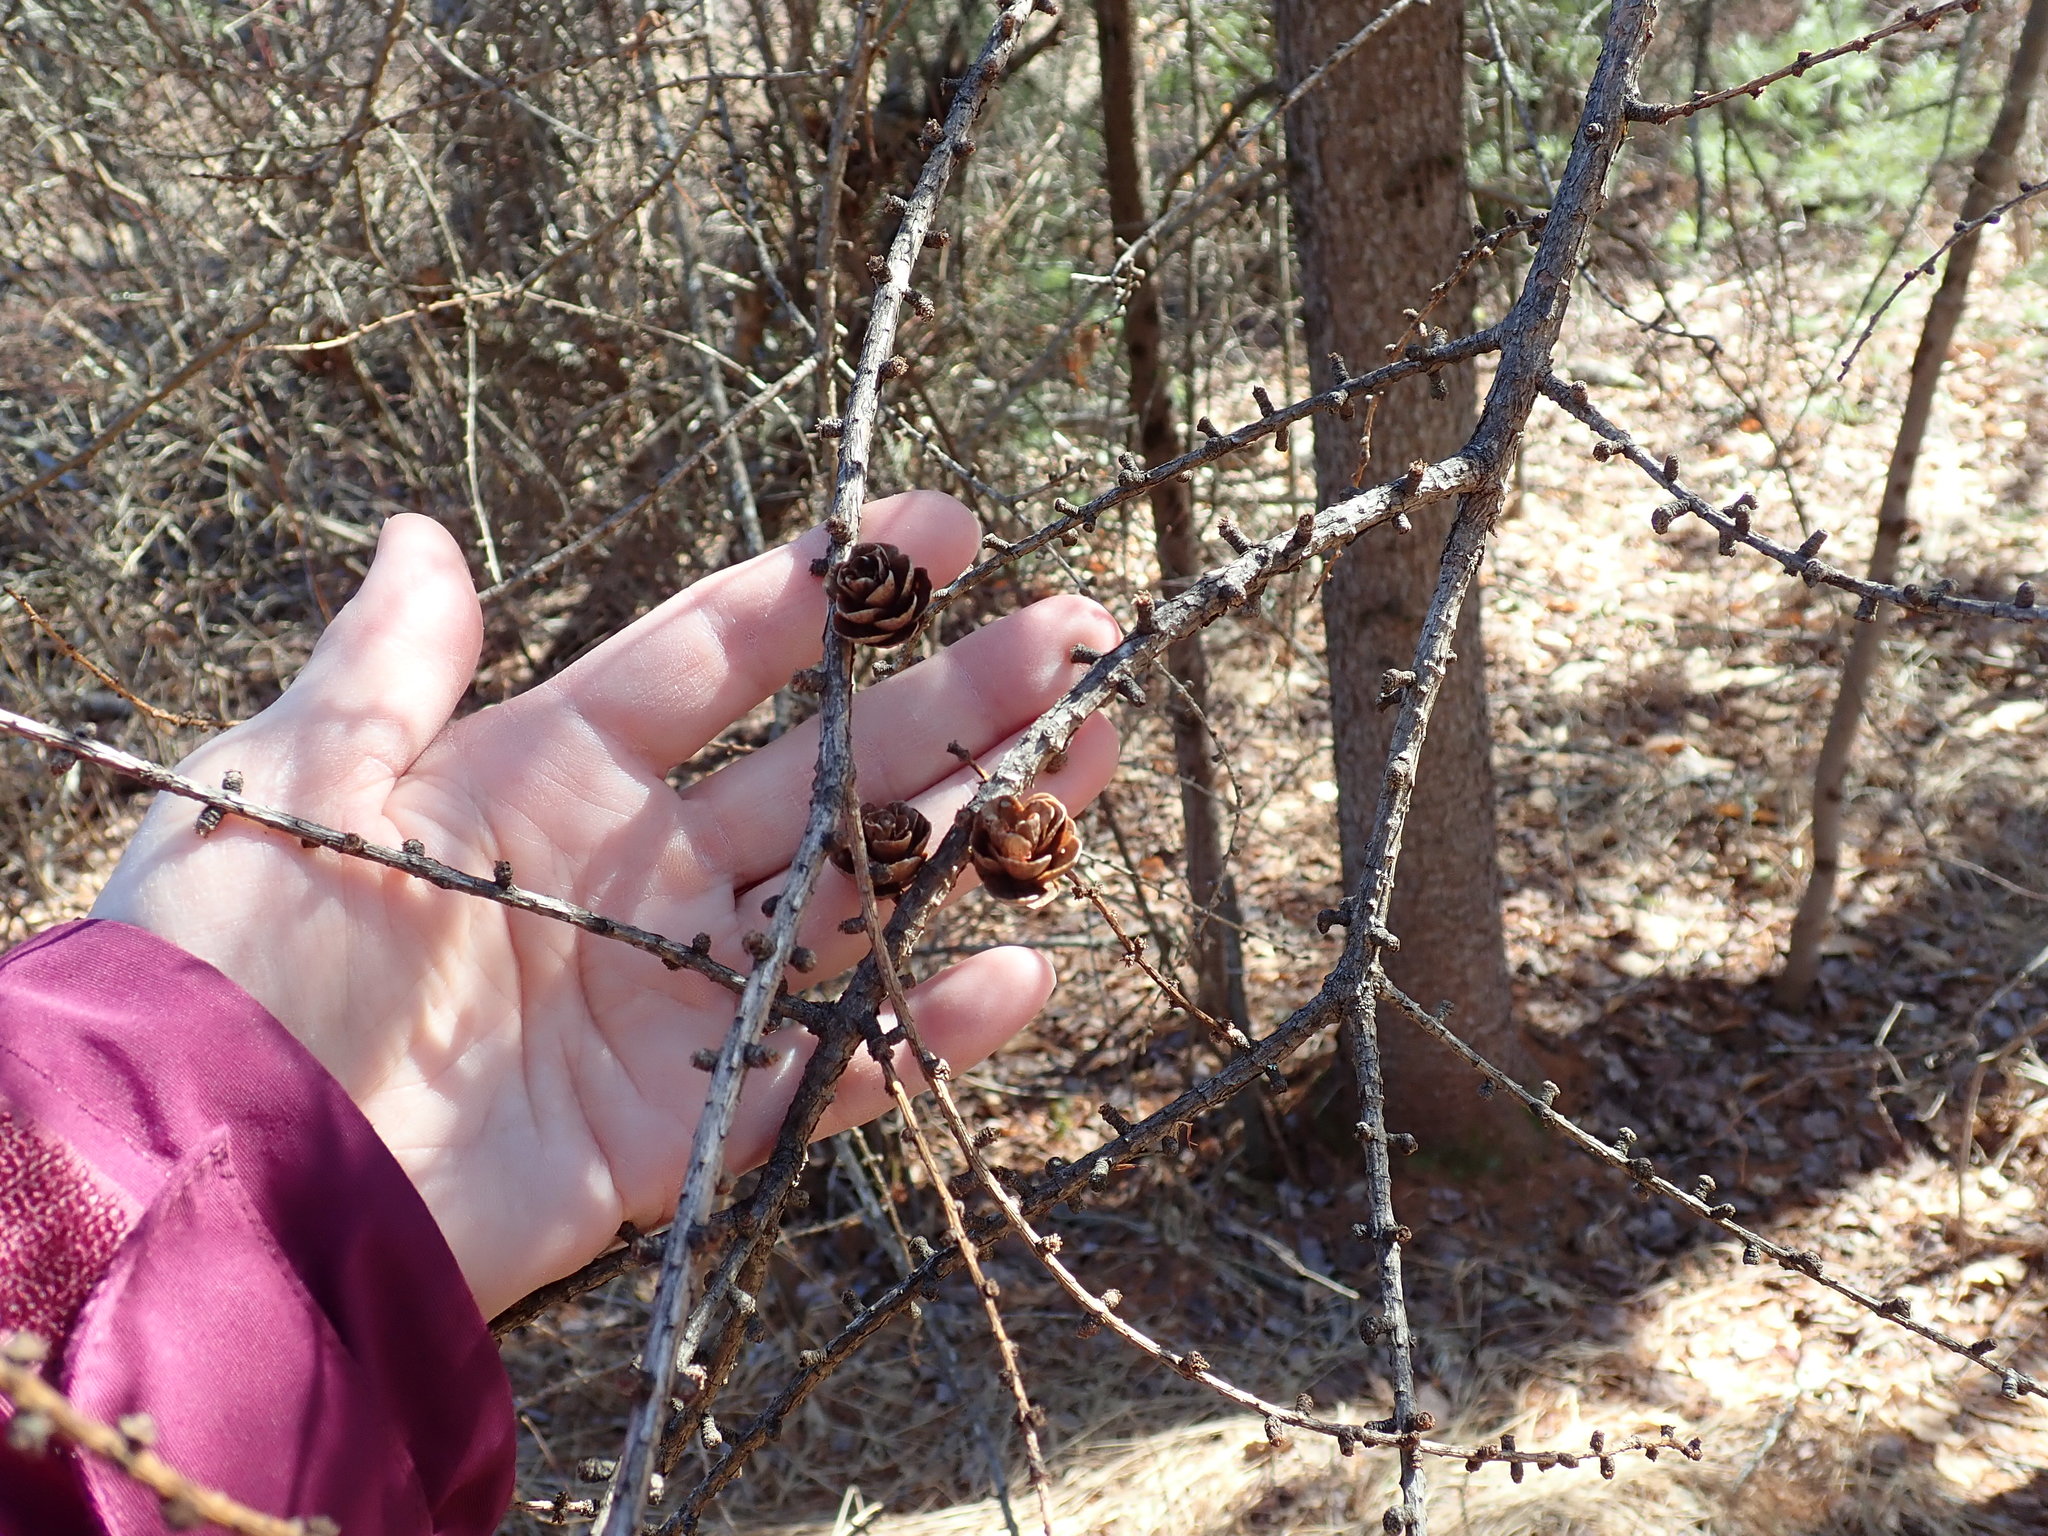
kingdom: Plantae
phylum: Tracheophyta
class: Pinopsida
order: Pinales
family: Pinaceae
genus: Larix
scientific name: Larix laricina
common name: American larch
